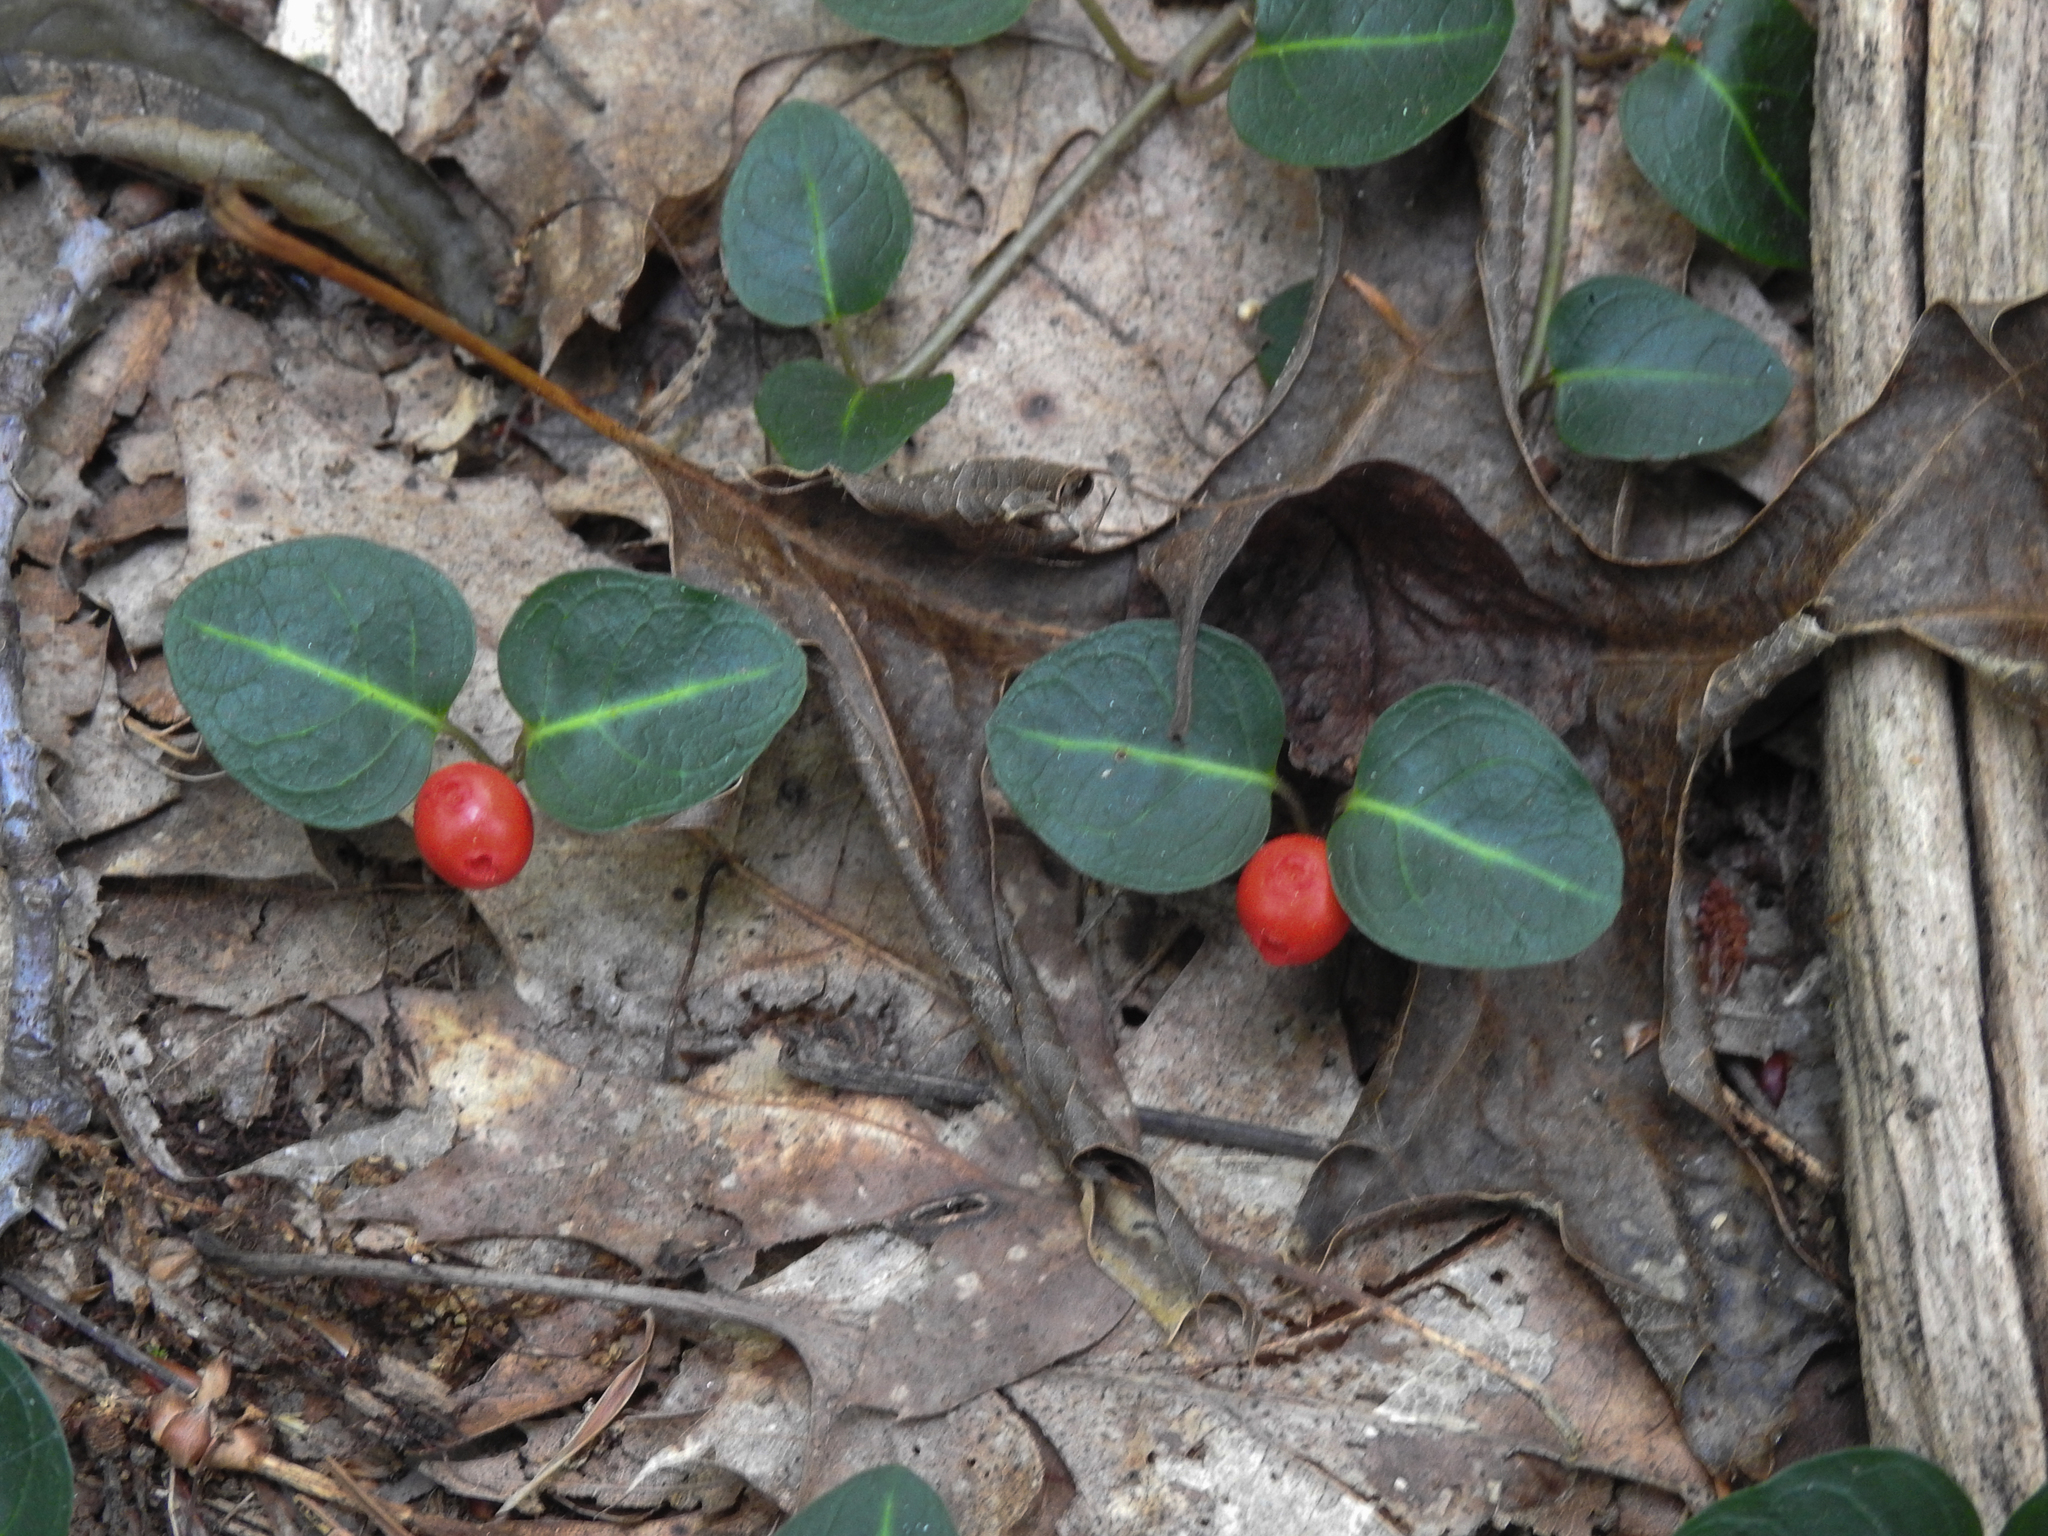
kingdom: Plantae
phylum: Tracheophyta
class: Magnoliopsida
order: Gentianales
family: Rubiaceae
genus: Mitchella
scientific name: Mitchella repens
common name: Partridge-berry
